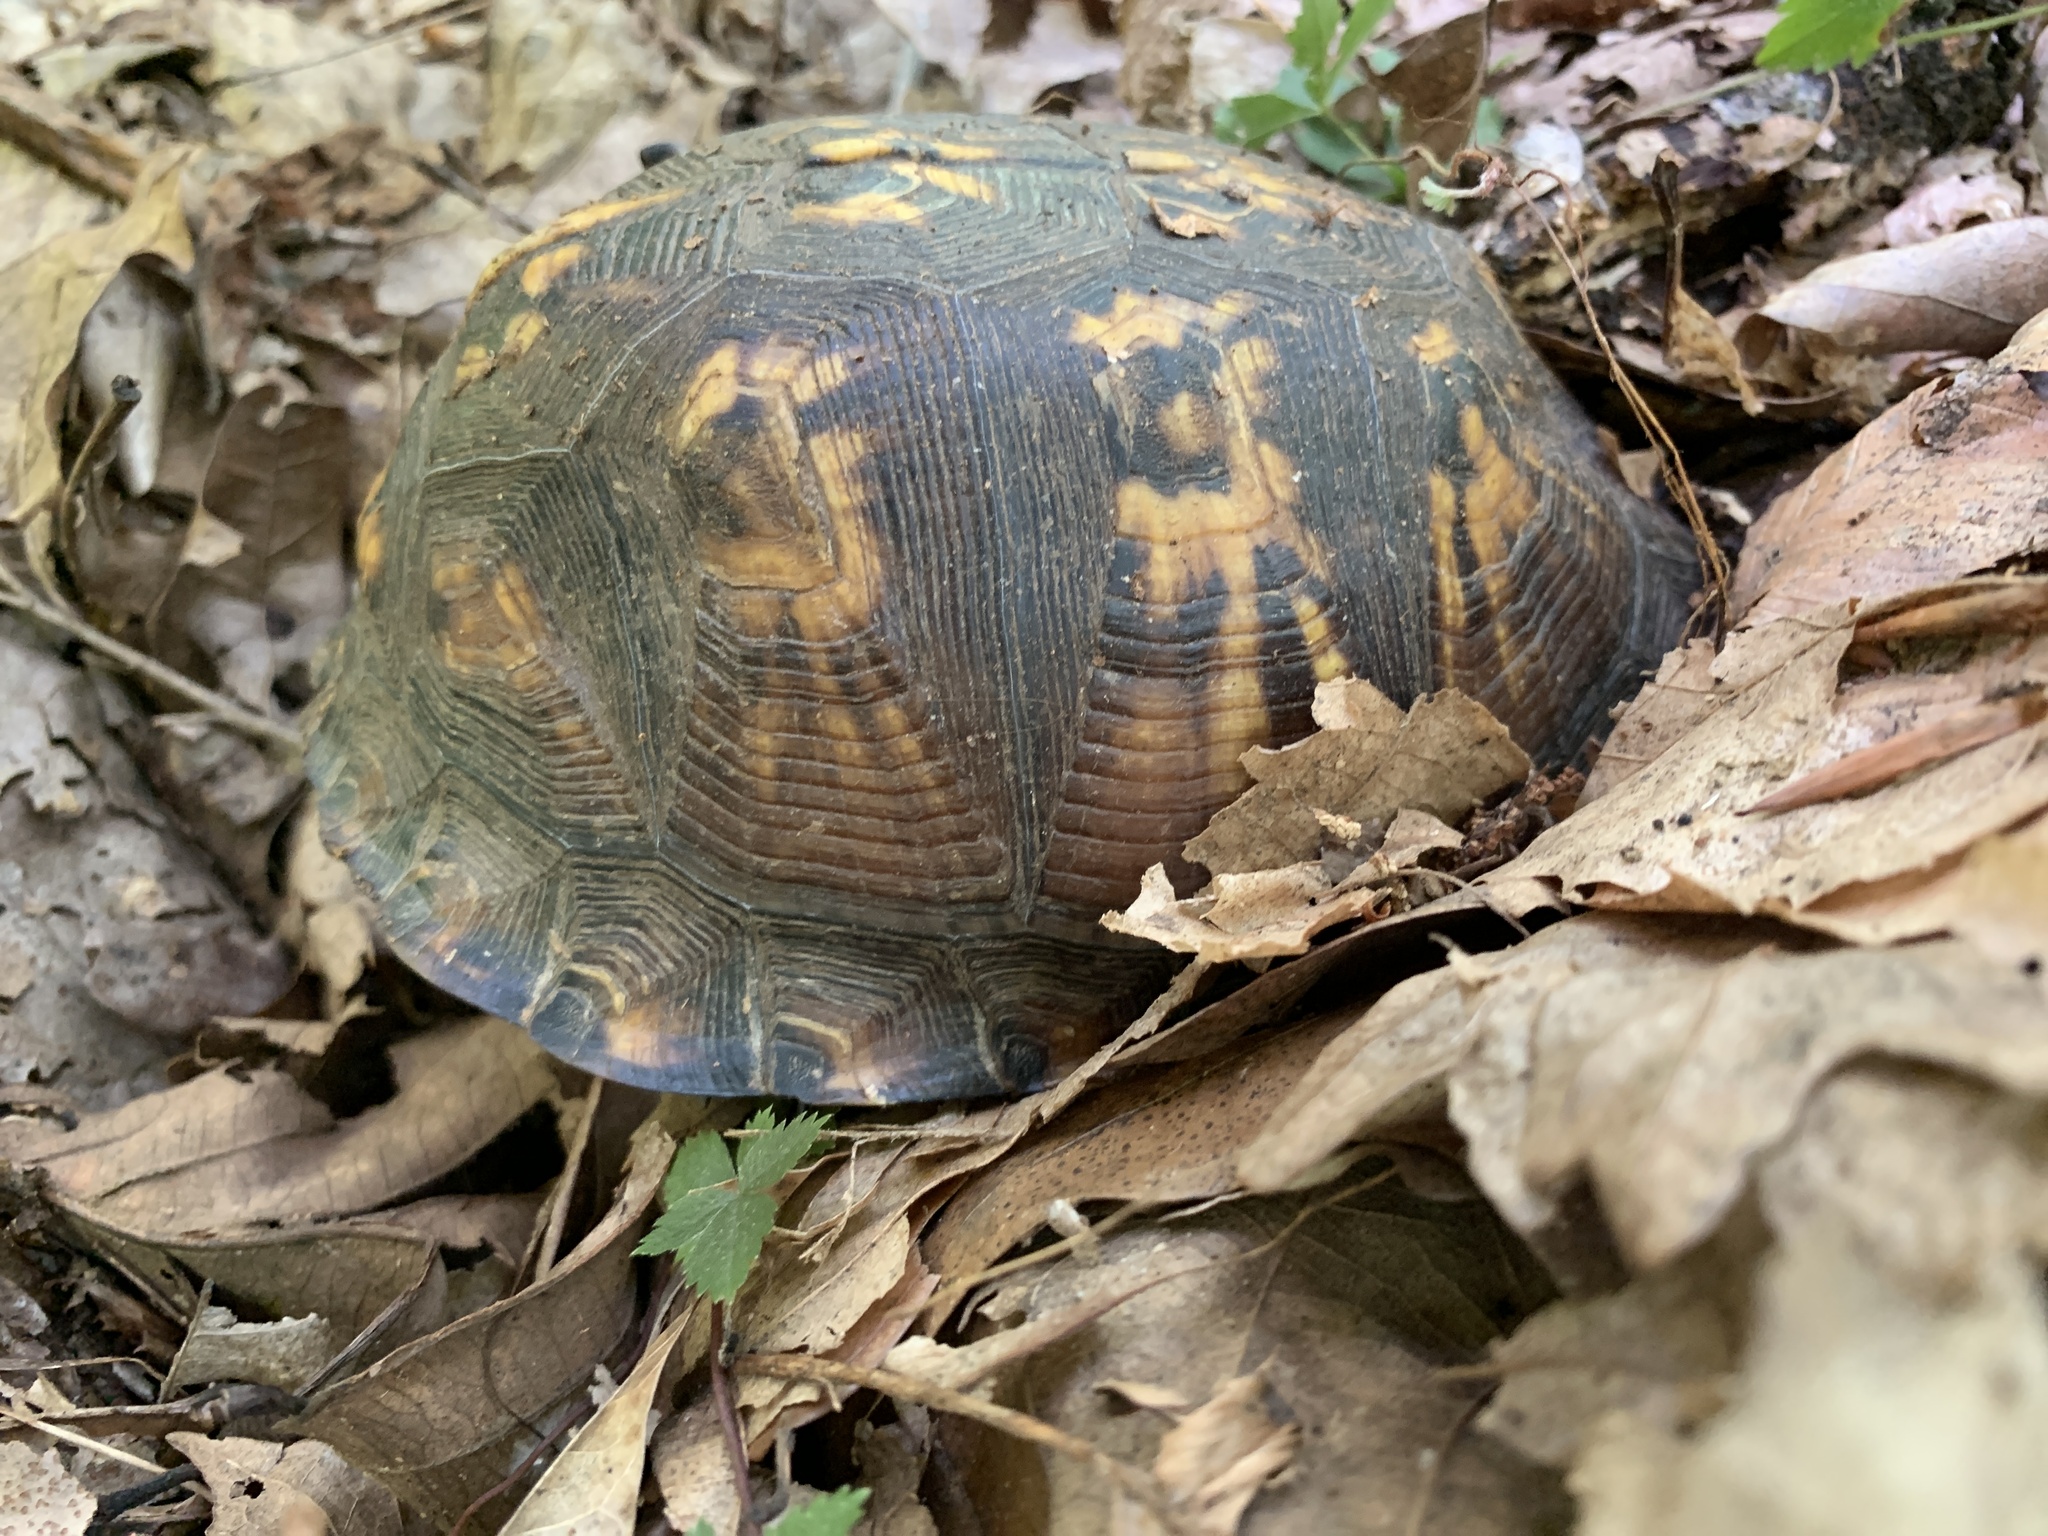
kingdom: Animalia
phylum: Chordata
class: Testudines
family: Emydidae
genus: Terrapene
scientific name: Terrapene carolina
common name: Common box turtle
